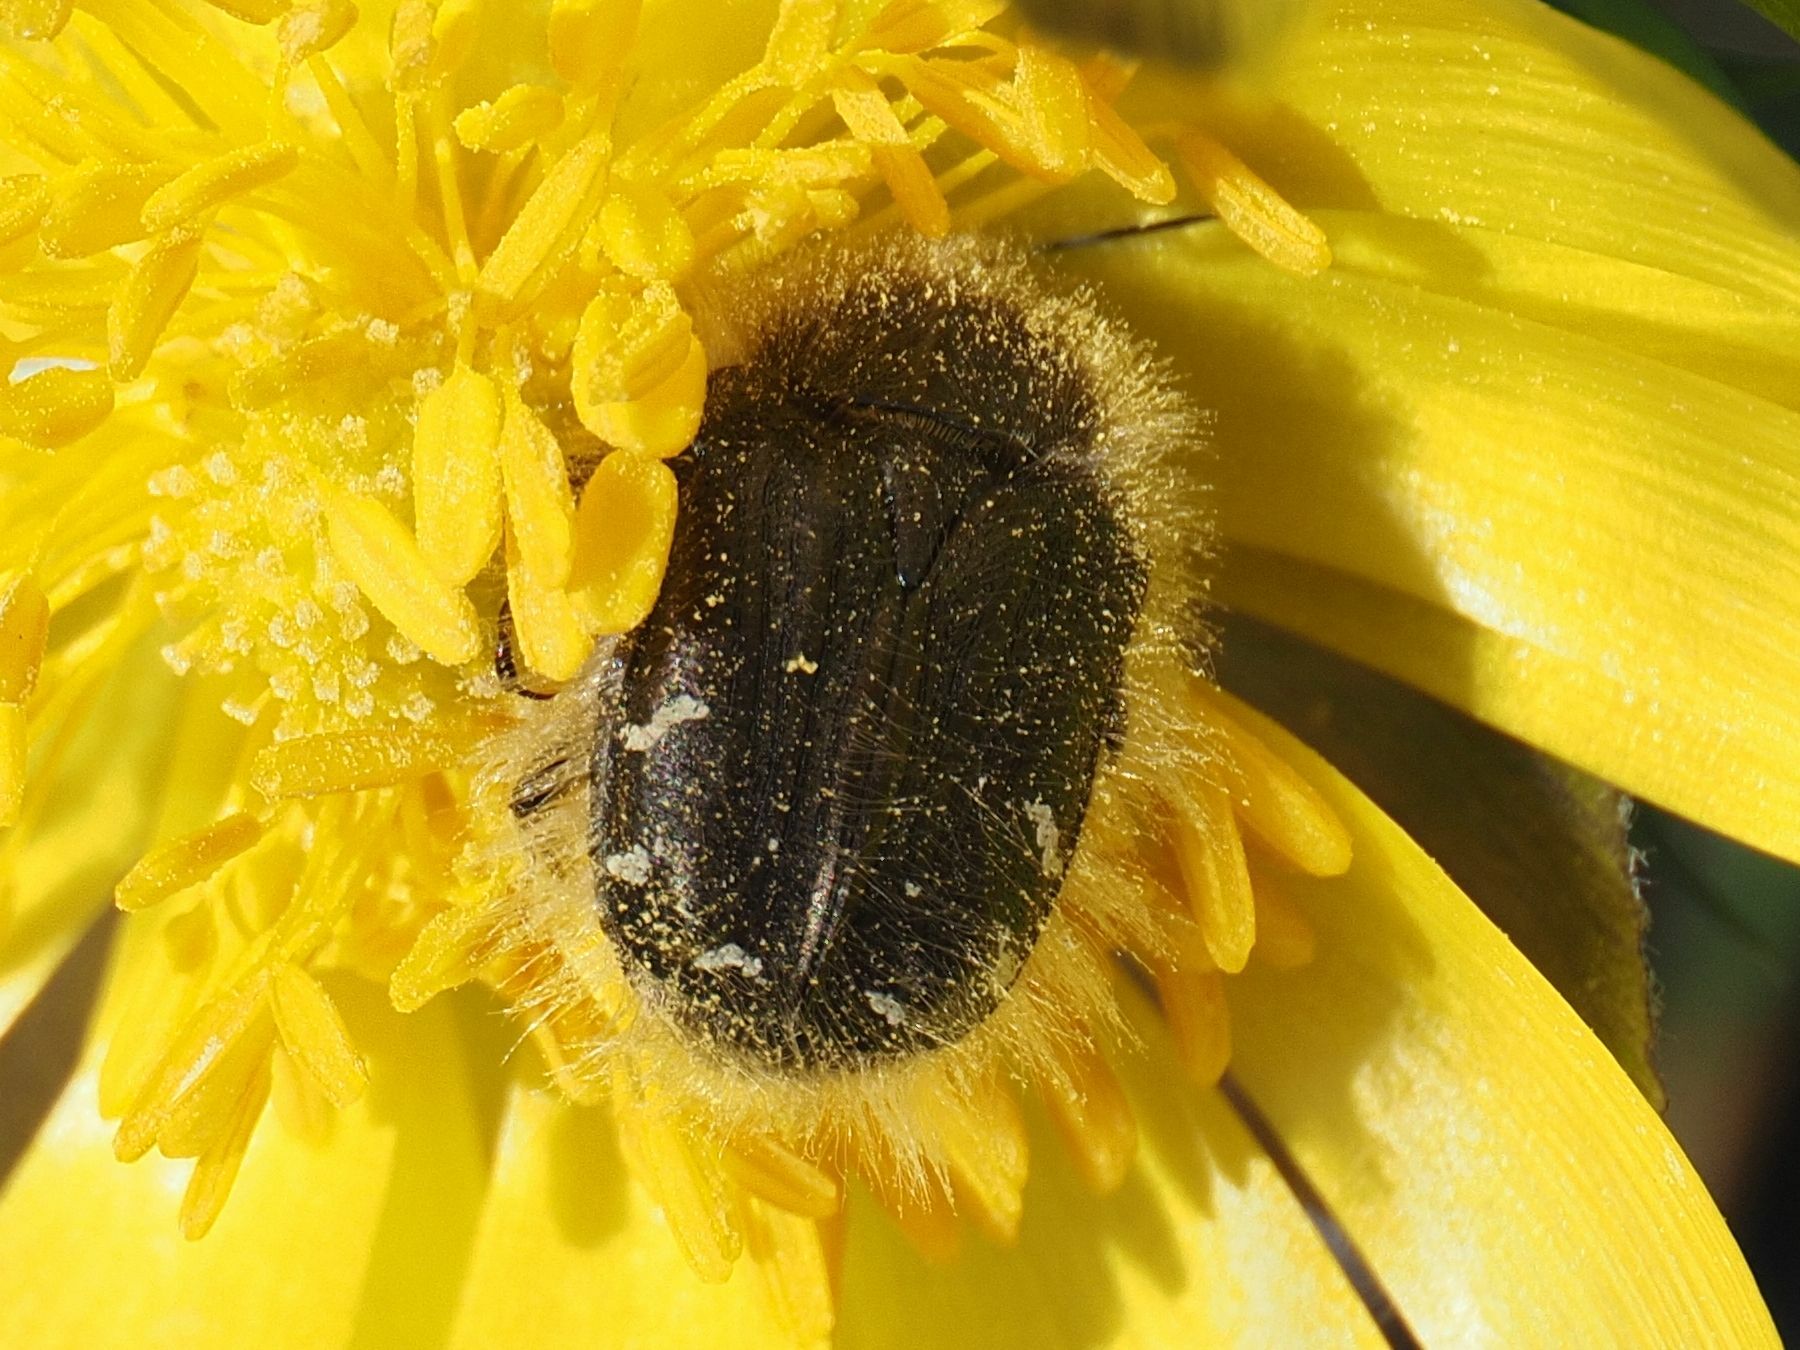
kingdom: Animalia
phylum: Arthropoda
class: Insecta
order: Coleoptera
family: Scarabaeidae
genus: Tropinota
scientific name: Tropinota hirta
